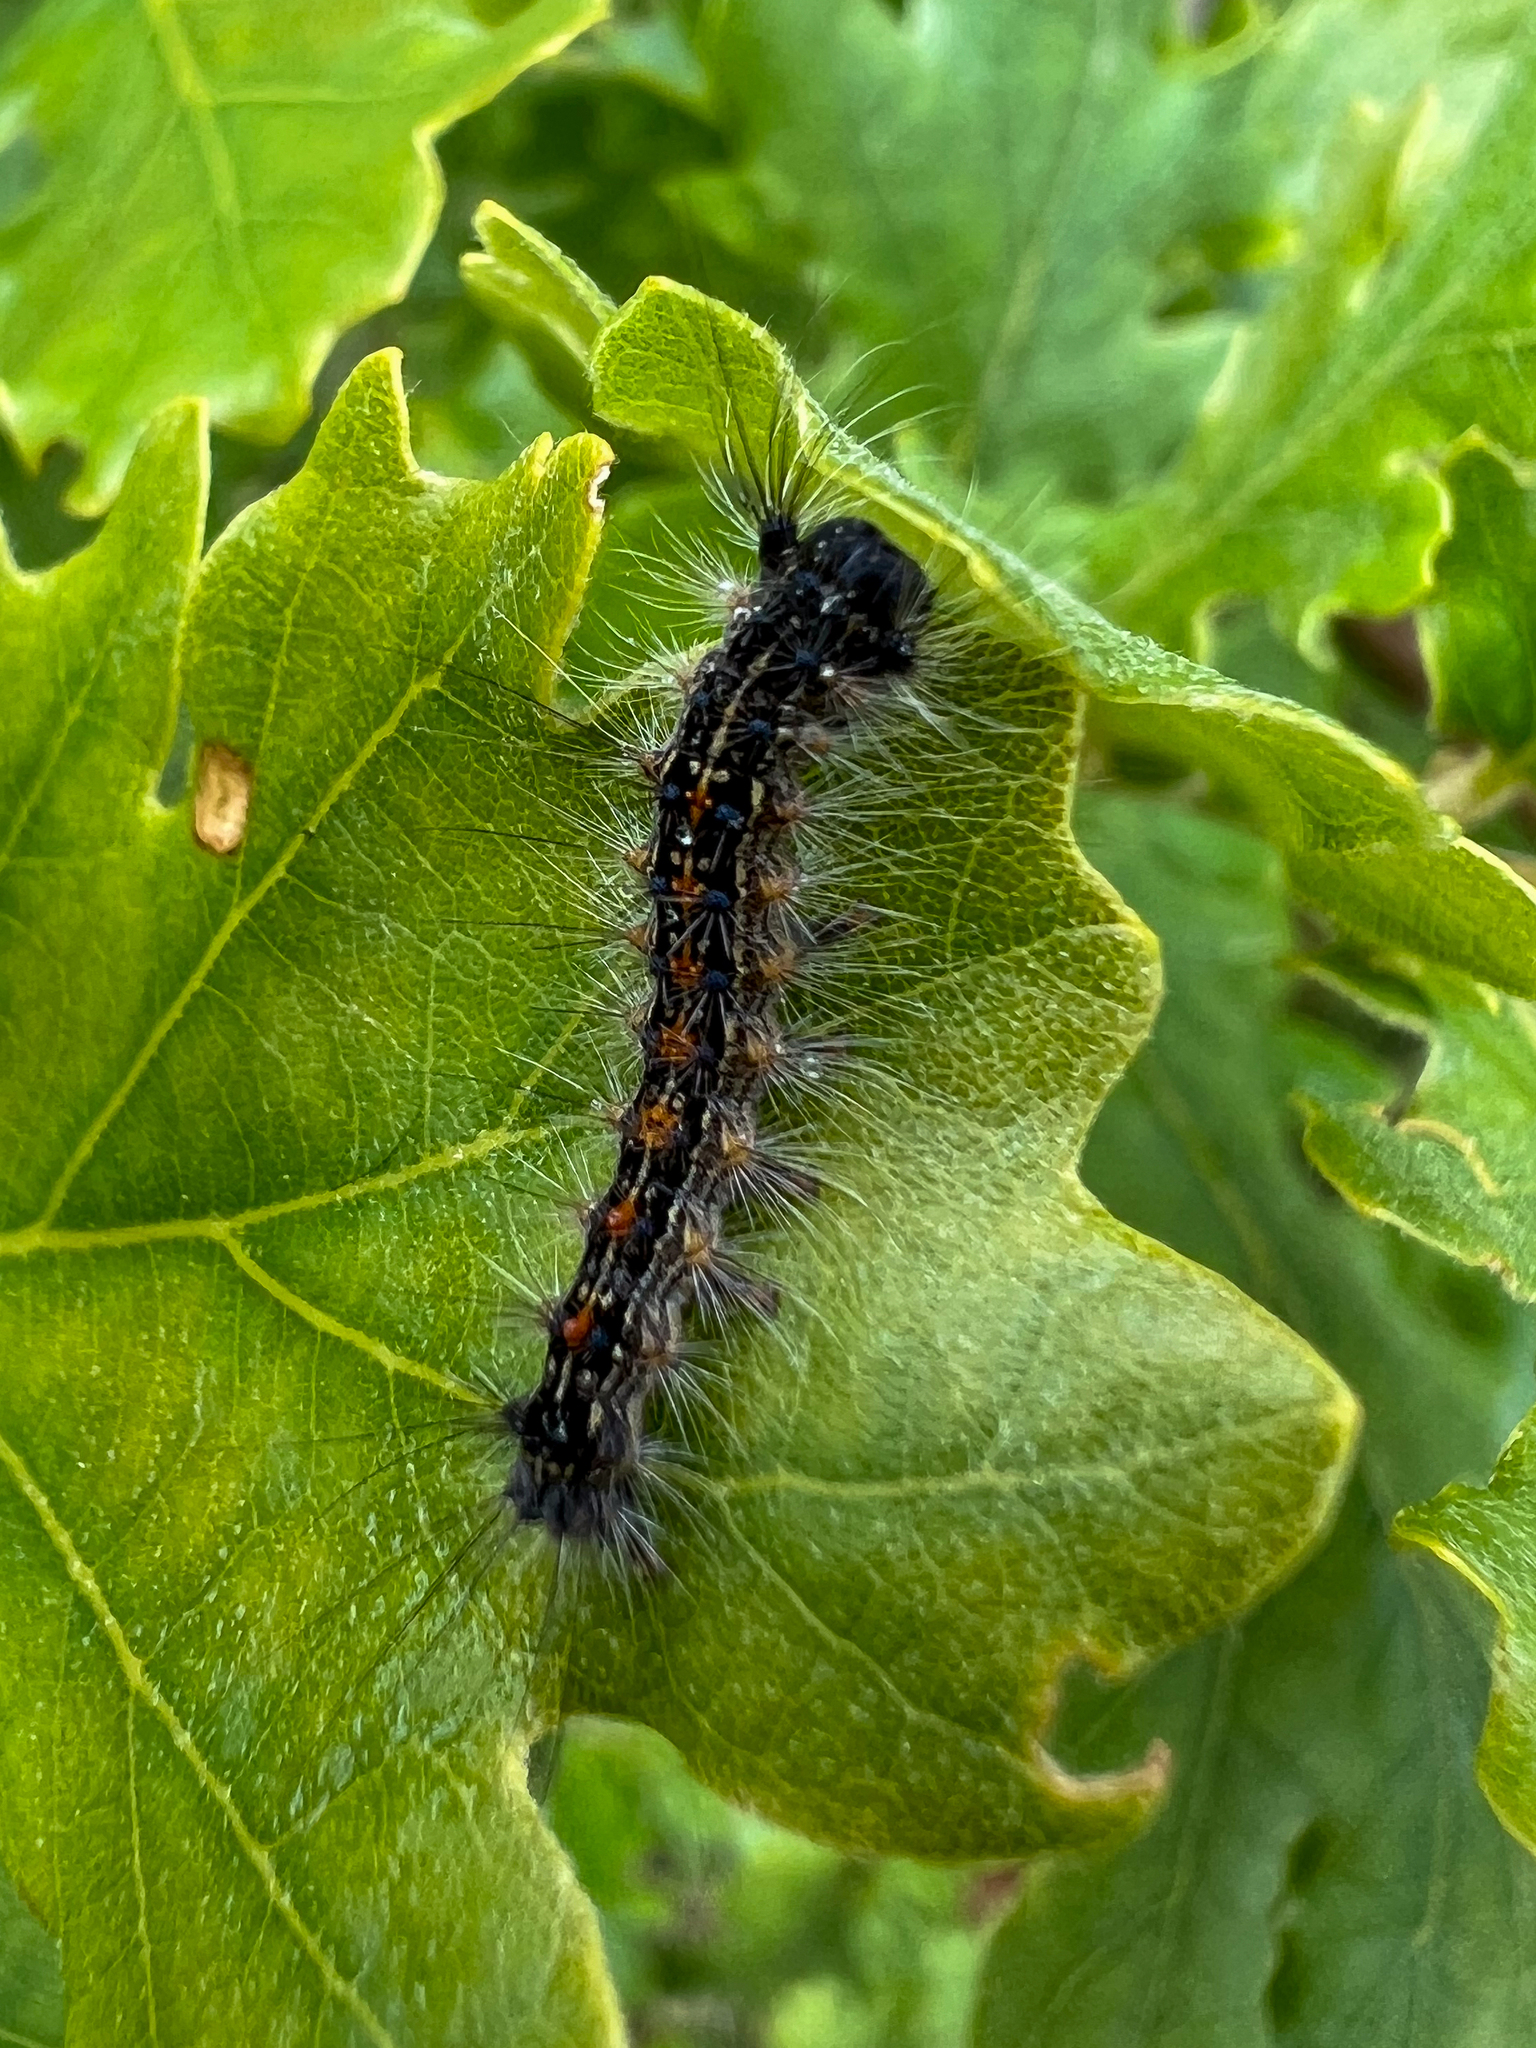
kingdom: Animalia
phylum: Arthropoda
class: Insecta
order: Lepidoptera
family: Erebidae
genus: Lymantria
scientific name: Lymantria dispar
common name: Gypsy moth
